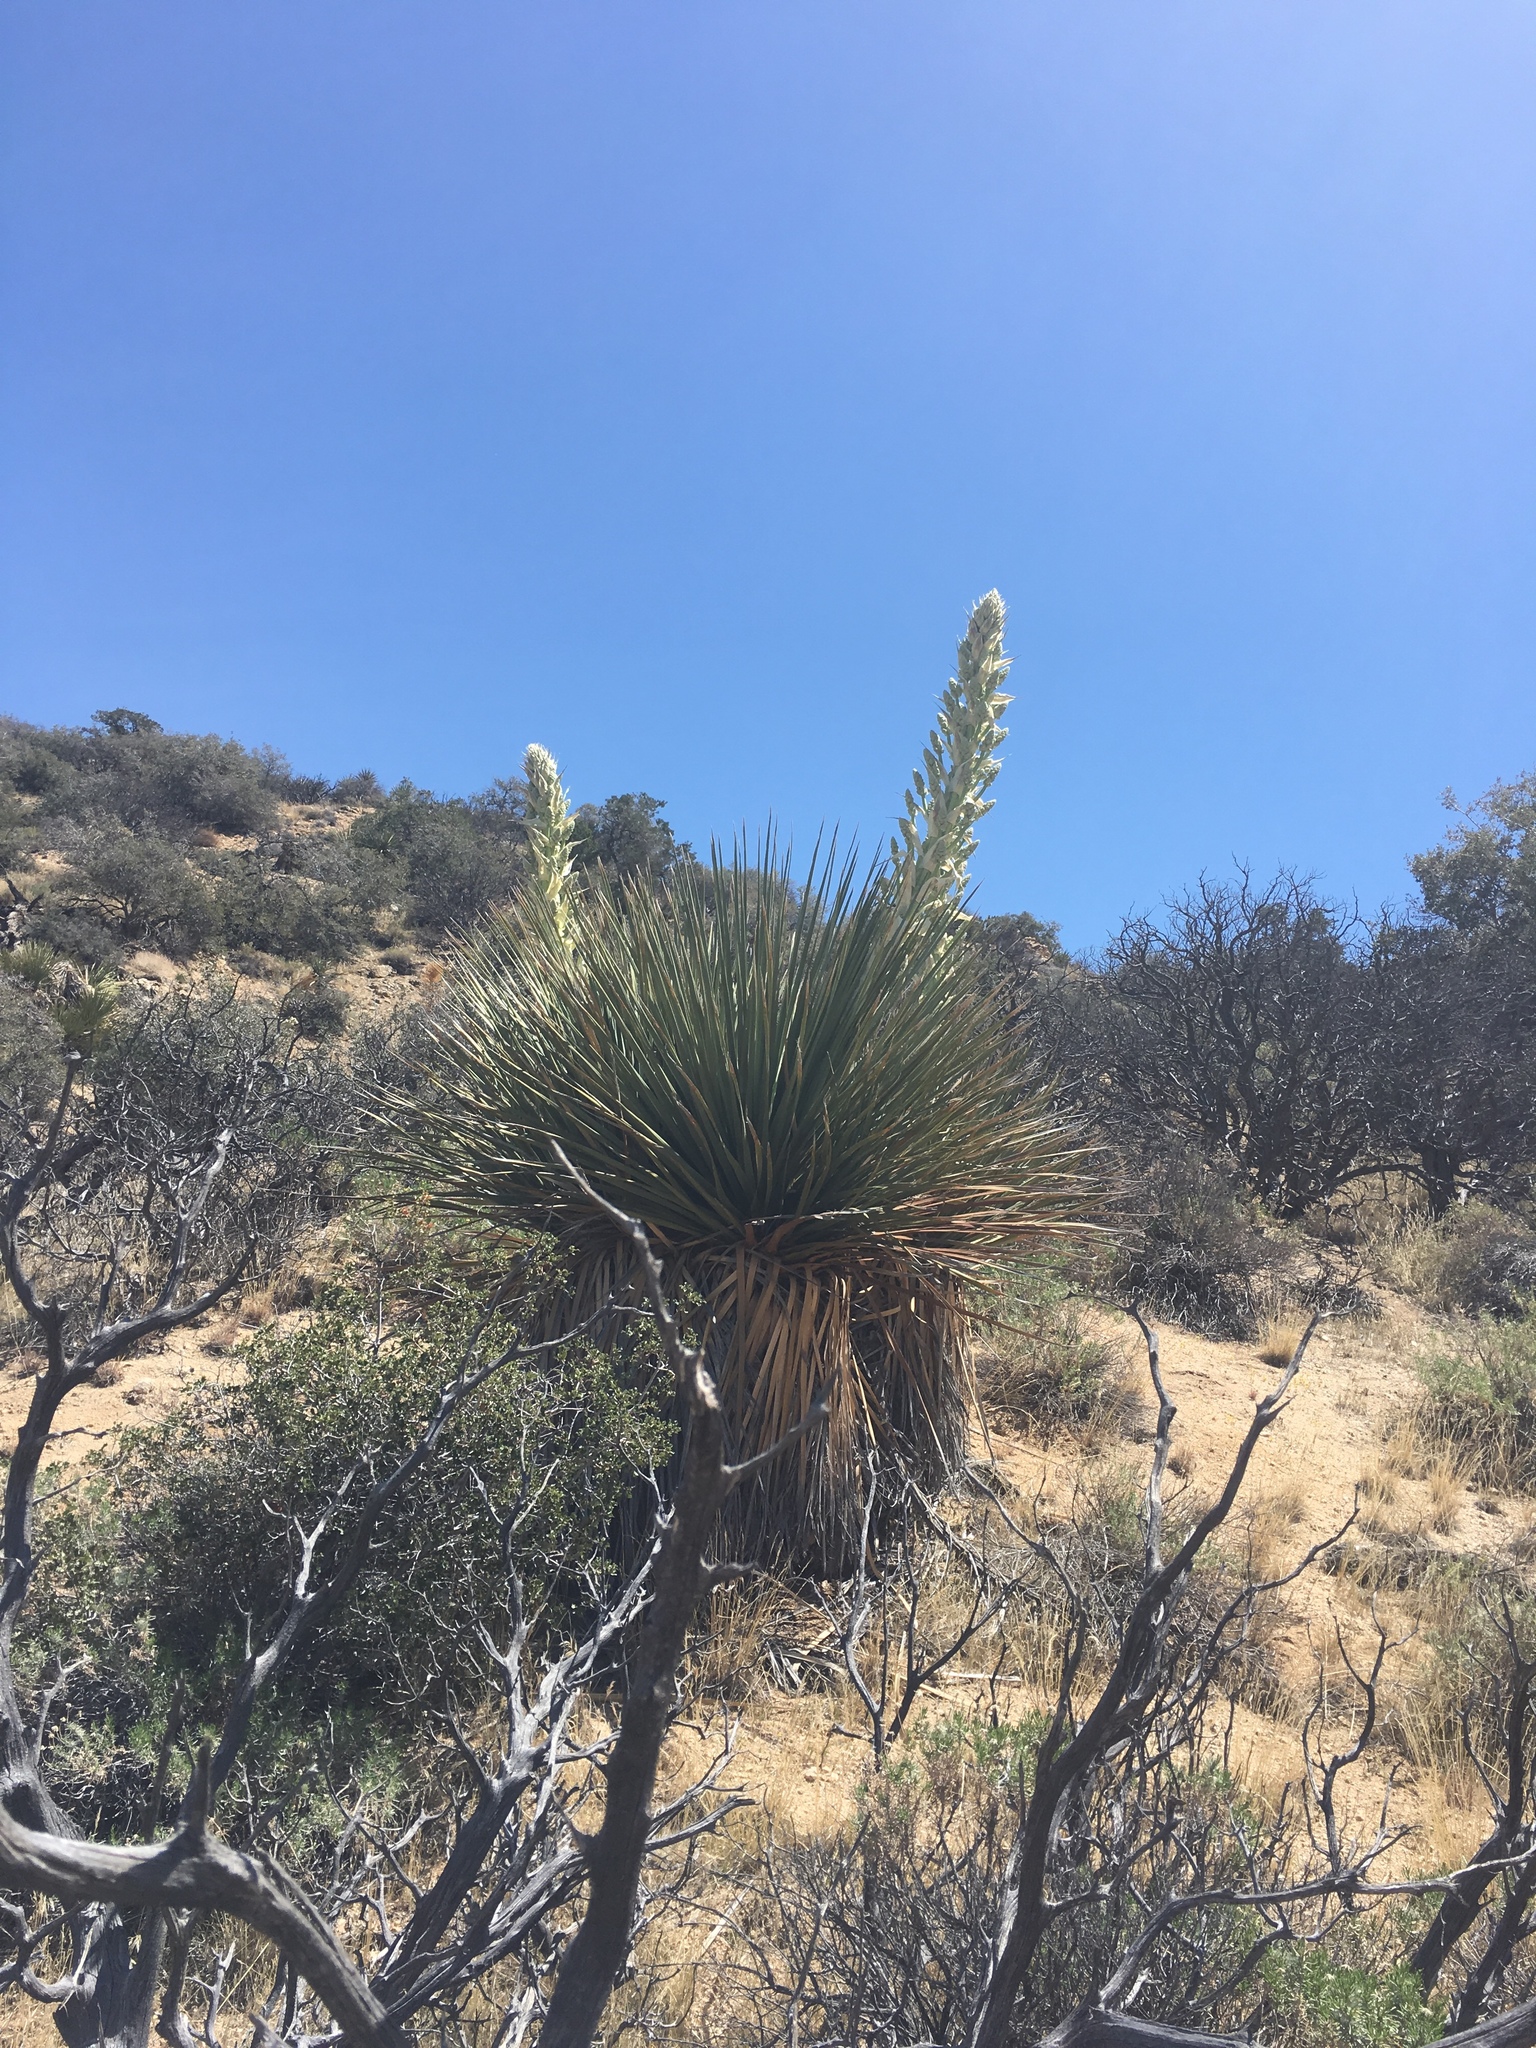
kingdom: Plantae
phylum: Tracheophyta
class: Liliopsida
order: Asparagales
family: Asparagaceae
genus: Nolina
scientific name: Nolina parryi
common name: Parry nolina
